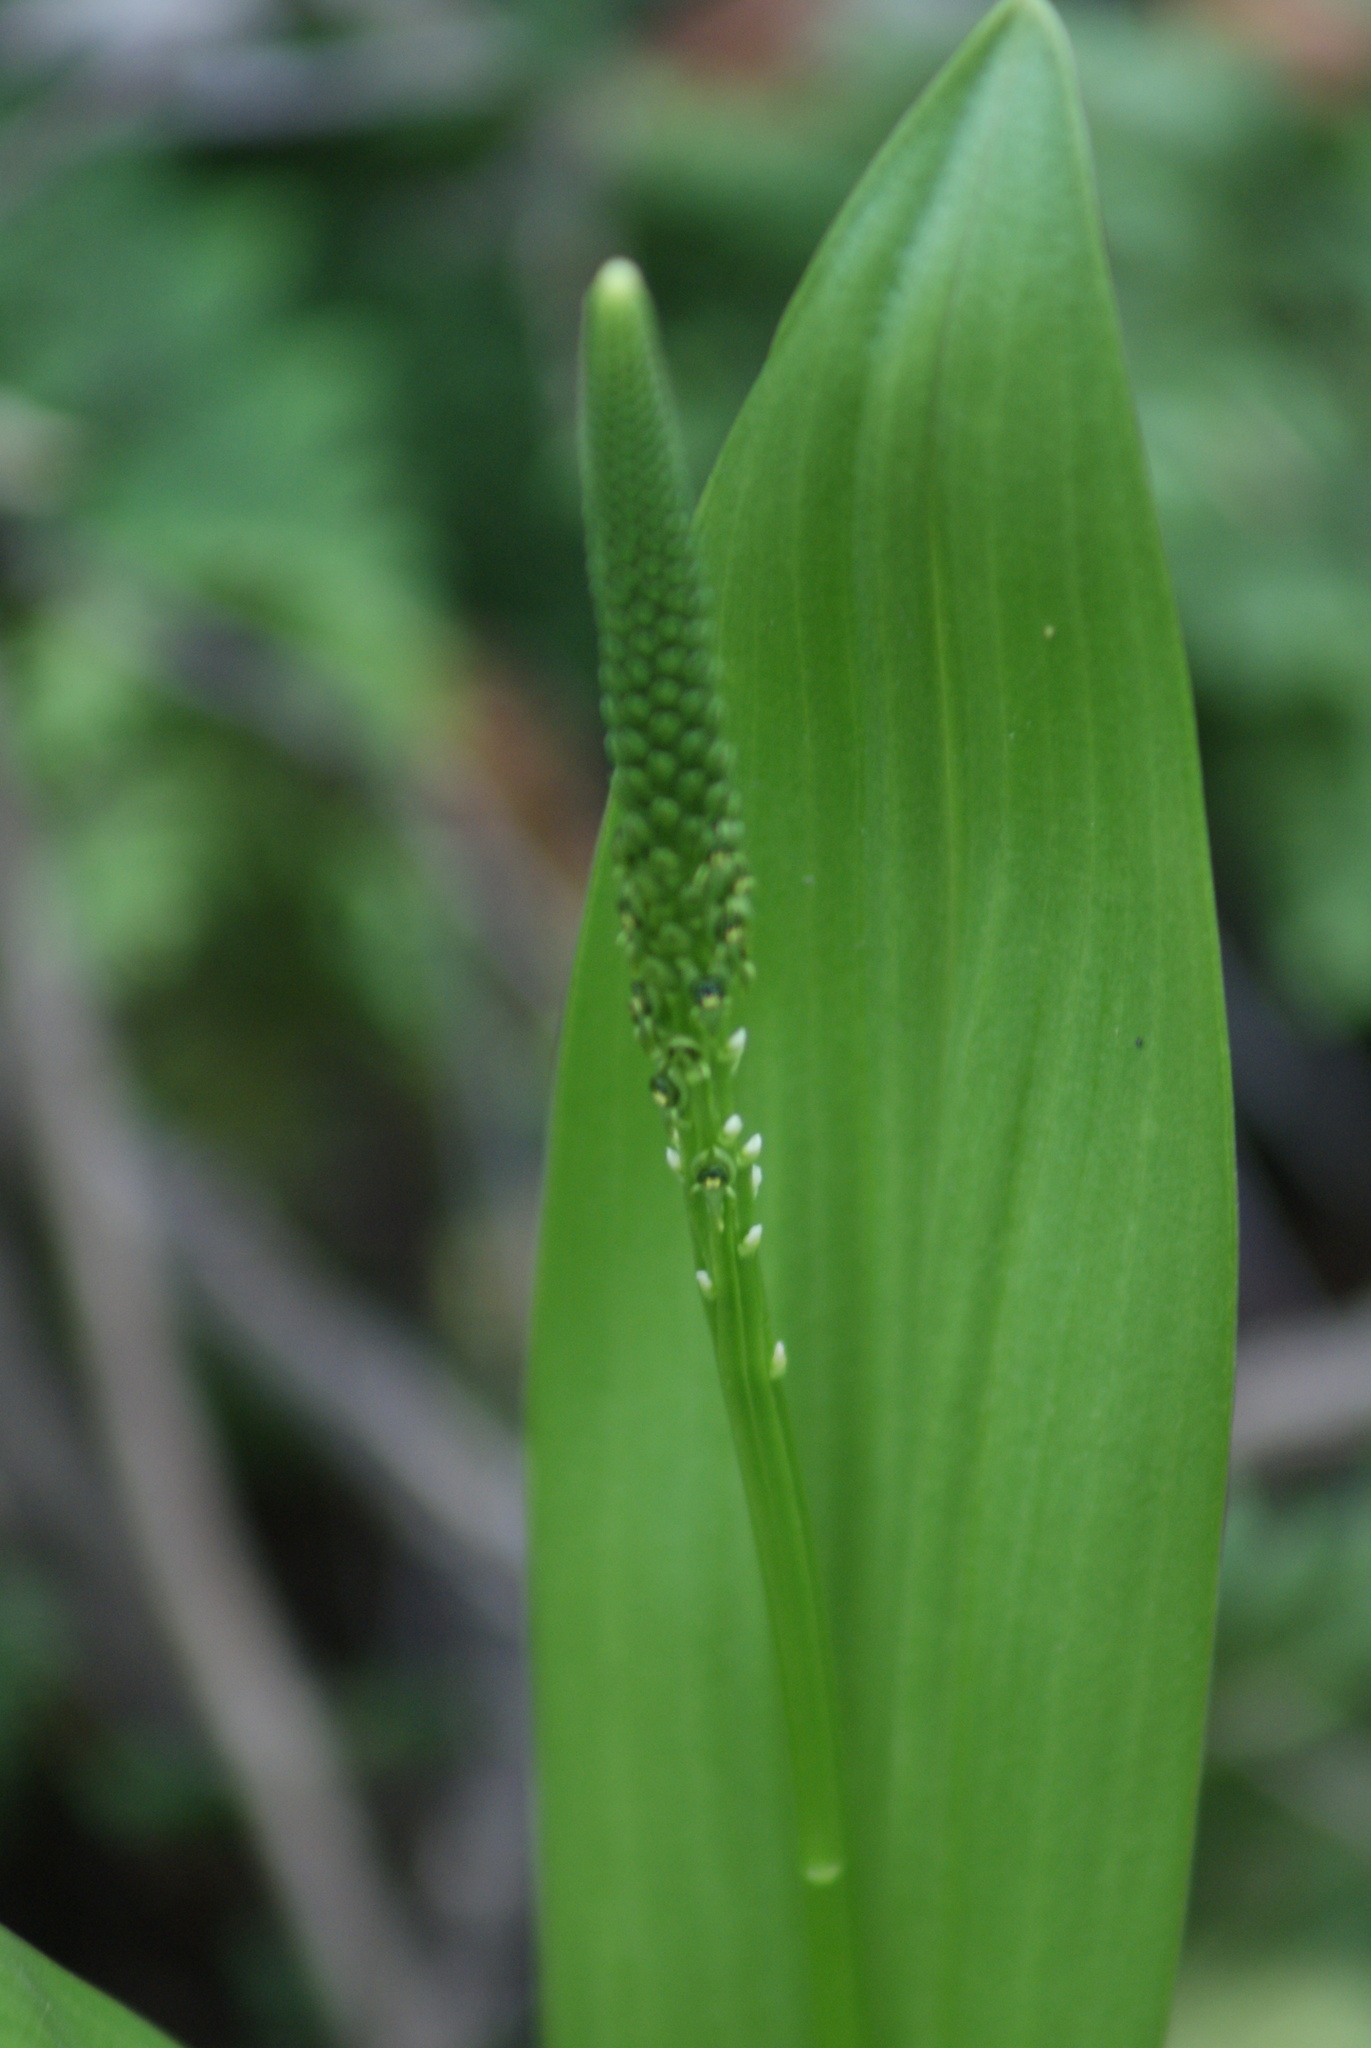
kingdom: Plantae
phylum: Tracheophyta
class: Liliopsida
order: Asparagales
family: Orchidaceae
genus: Malaxis
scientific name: Malaxis myurus
